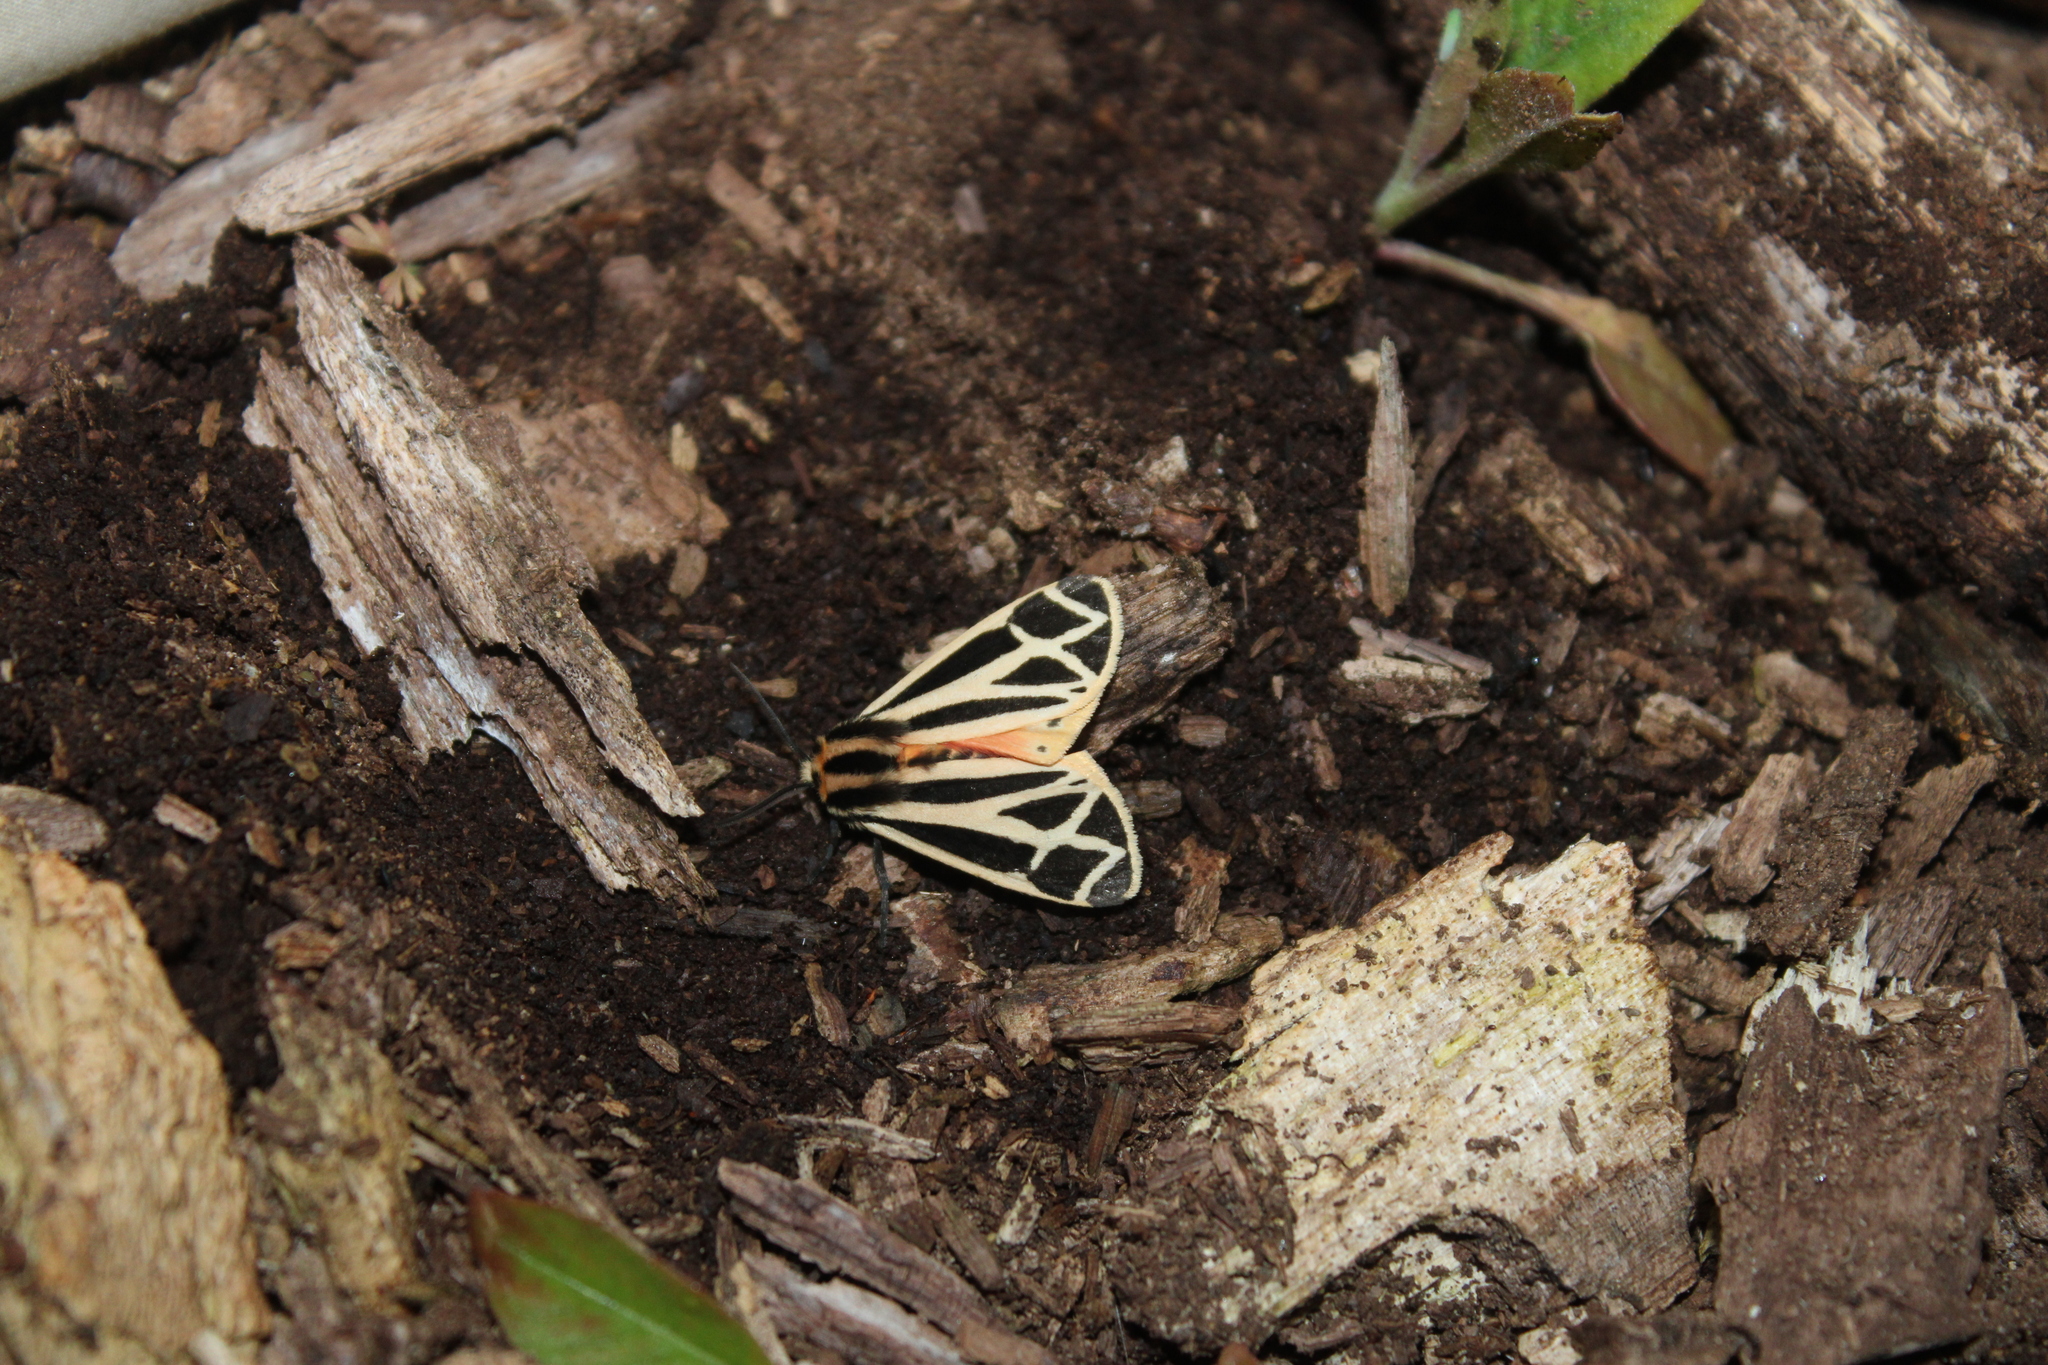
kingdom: Animalia
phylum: Arthropoda
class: Insecta
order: Lepidoptera
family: Erebidae
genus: Apantesis
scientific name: Apantesis phalerata
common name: Harnessed tiger moth
